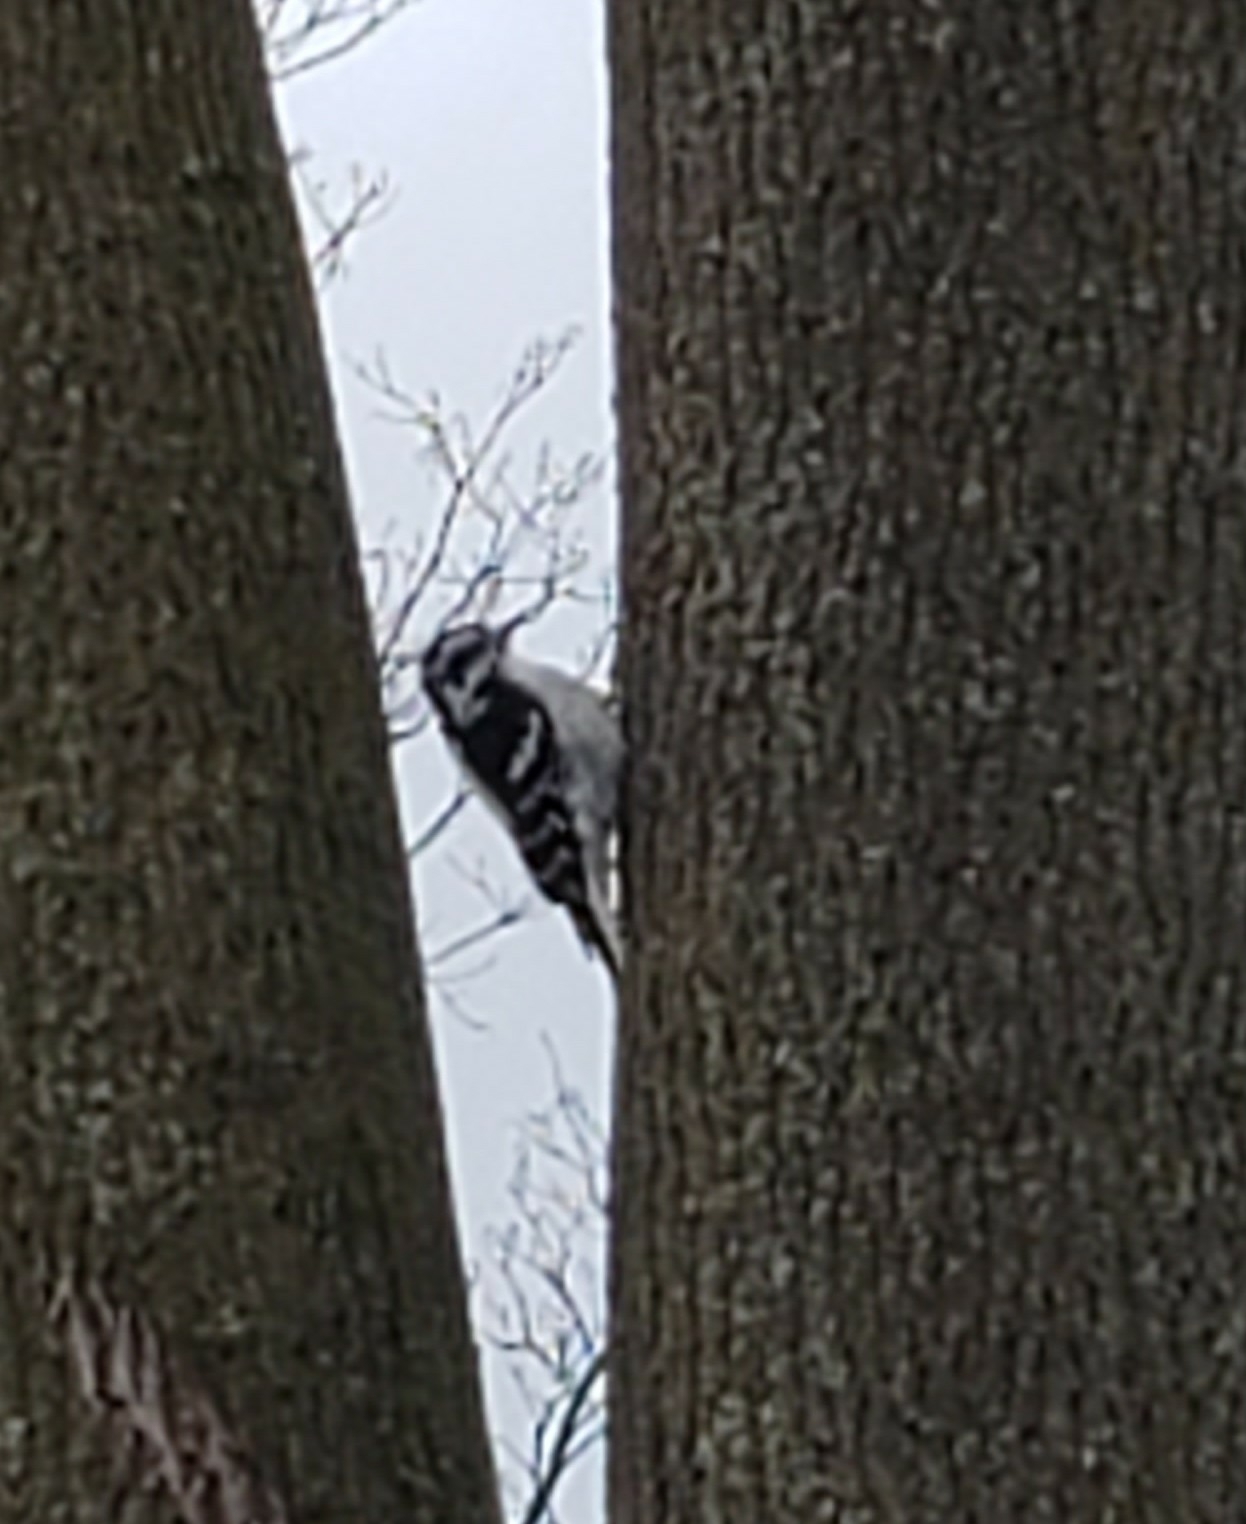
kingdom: Animalia
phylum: Chordata
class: Aves
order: Piciformes
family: Picidae
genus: Dryobates
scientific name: Dryobates pubescens
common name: Downy woodpecker
